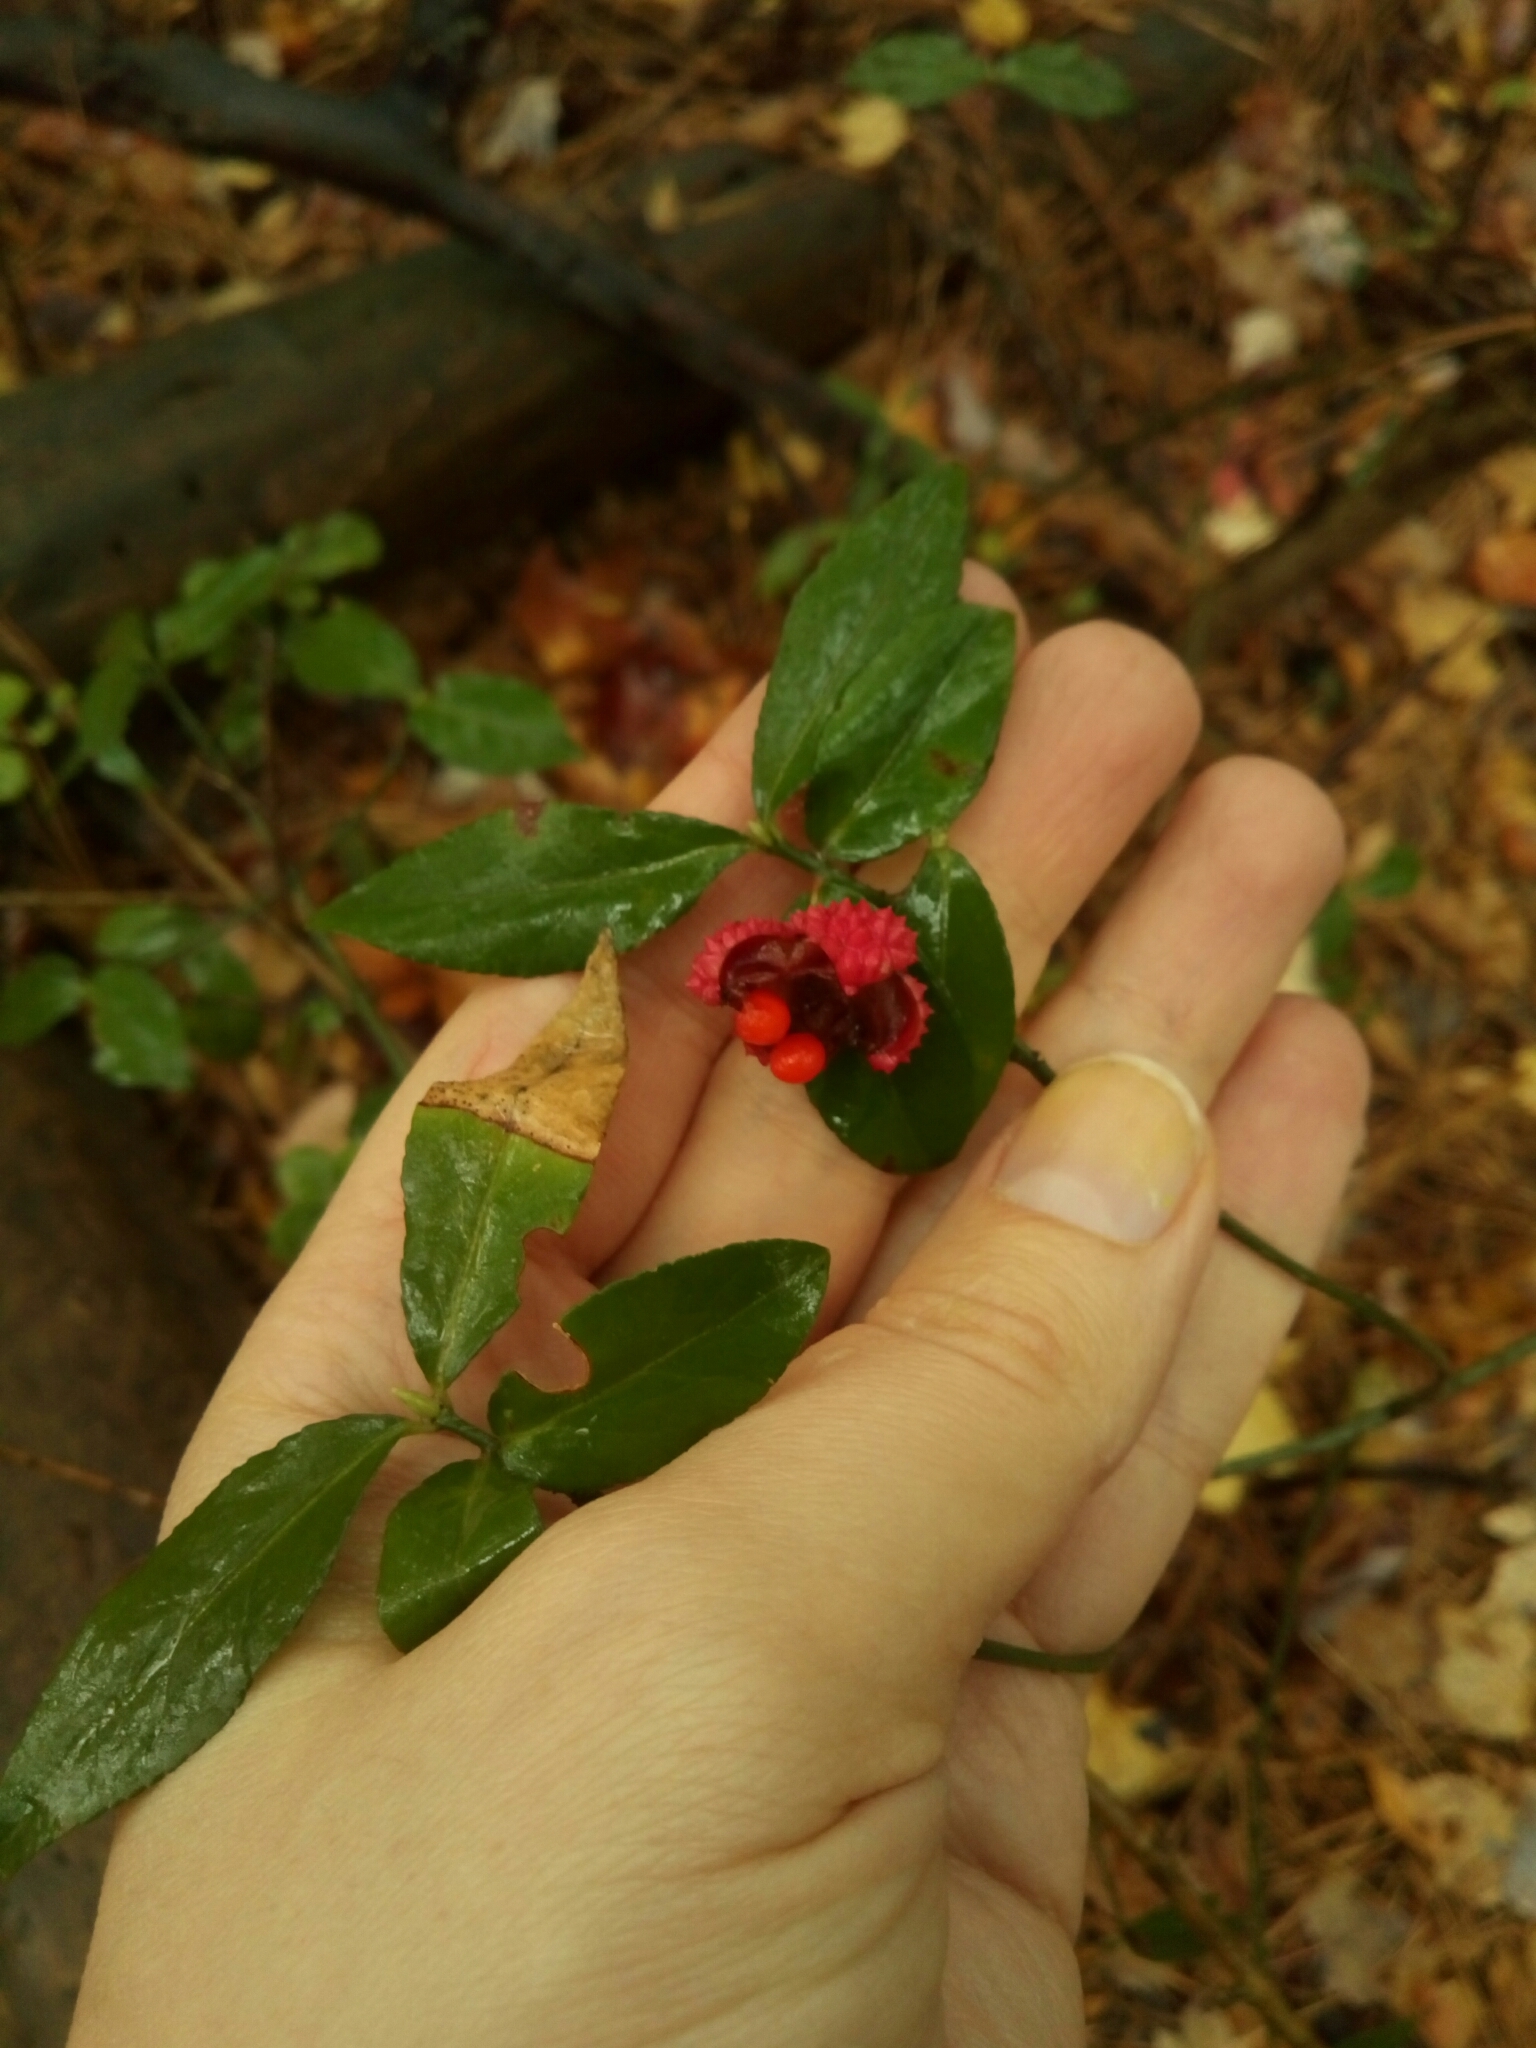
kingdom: Plantae
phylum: Tracheophyta
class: Magnoliopsida
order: Celastrales
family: Celastraceae
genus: Euonymus
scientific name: Euonymus americanus
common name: Bursting-heart
